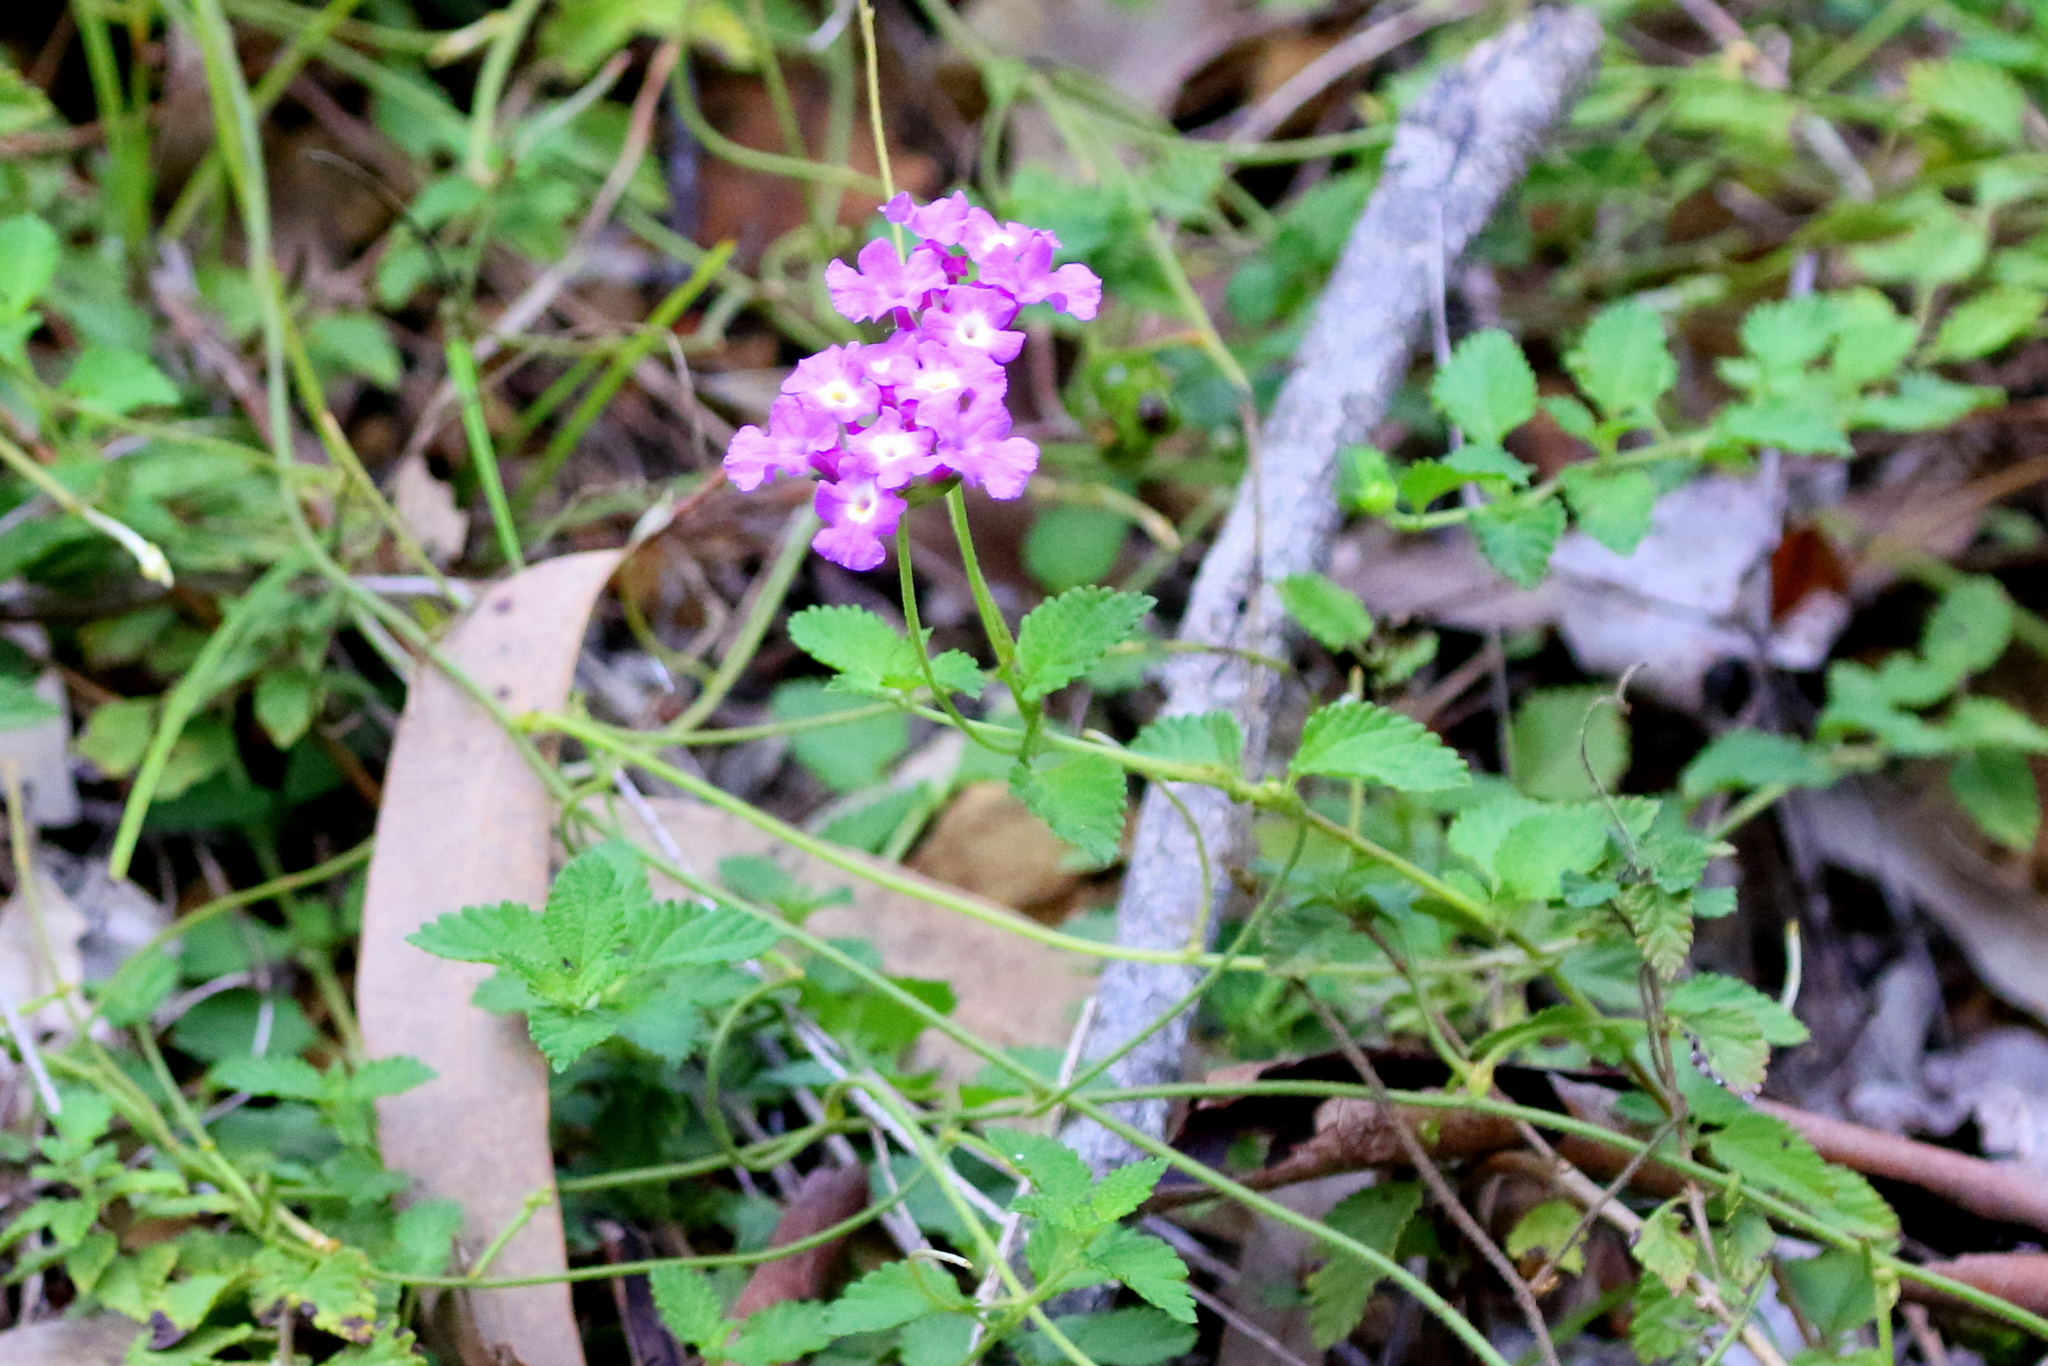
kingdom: Plantae
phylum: Tracheophyta
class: Magnoliopsida
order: Lamiales
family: Verbenaceae
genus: Lantana
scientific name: Lantana montevidensis
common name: Trailing shrubverbena
